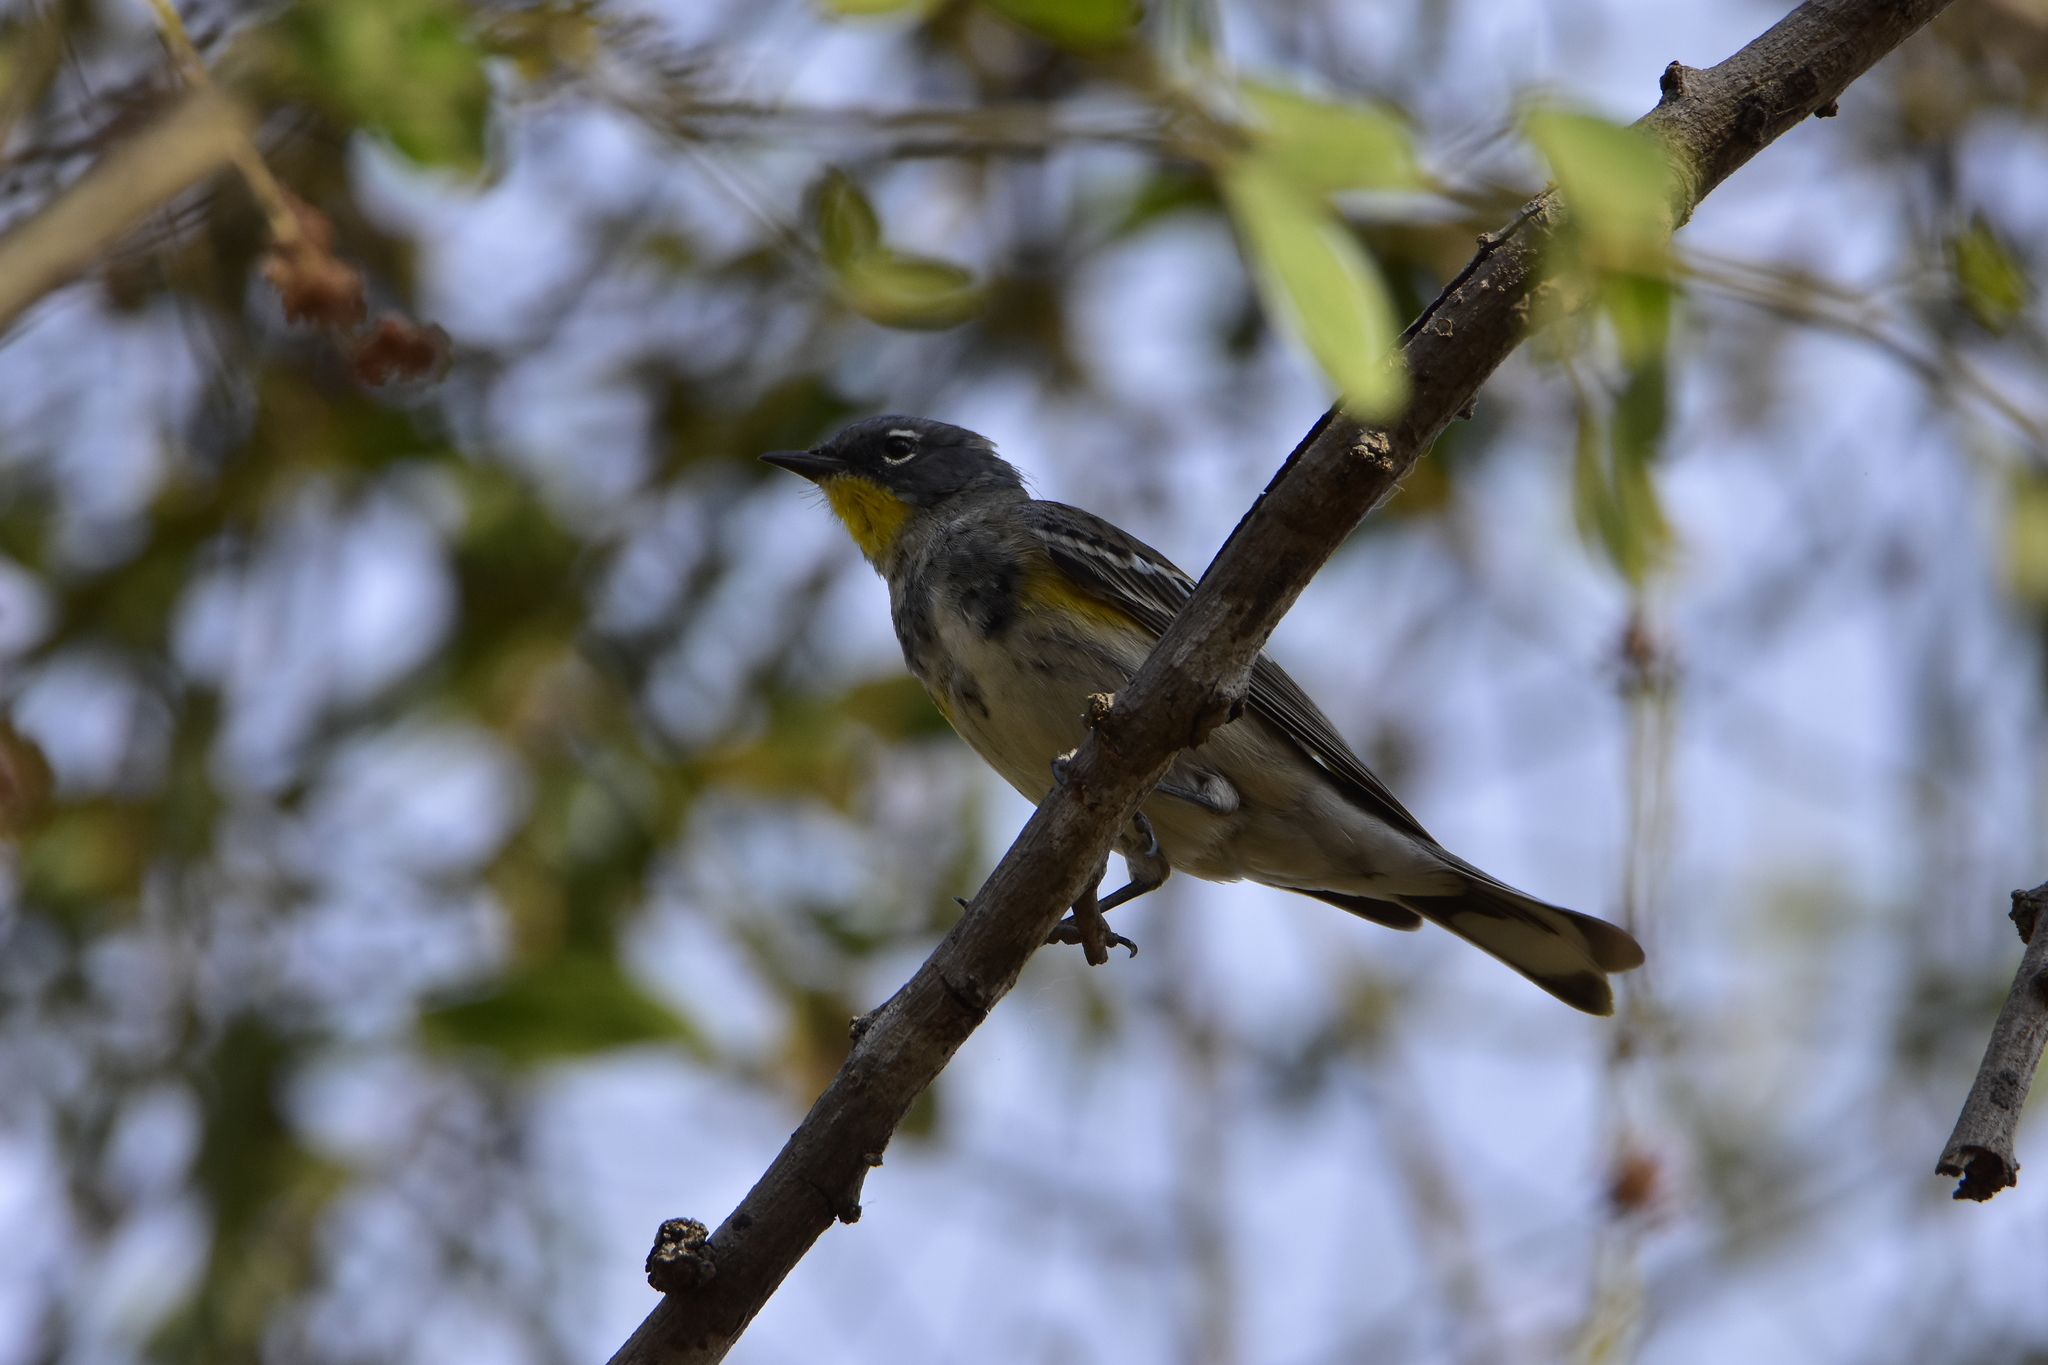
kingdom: Animalia
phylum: Chordata
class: Aves
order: Passeriformes
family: Parulidae
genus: Setophaga
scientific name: Setophaga coronata
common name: Myrtle warbler
